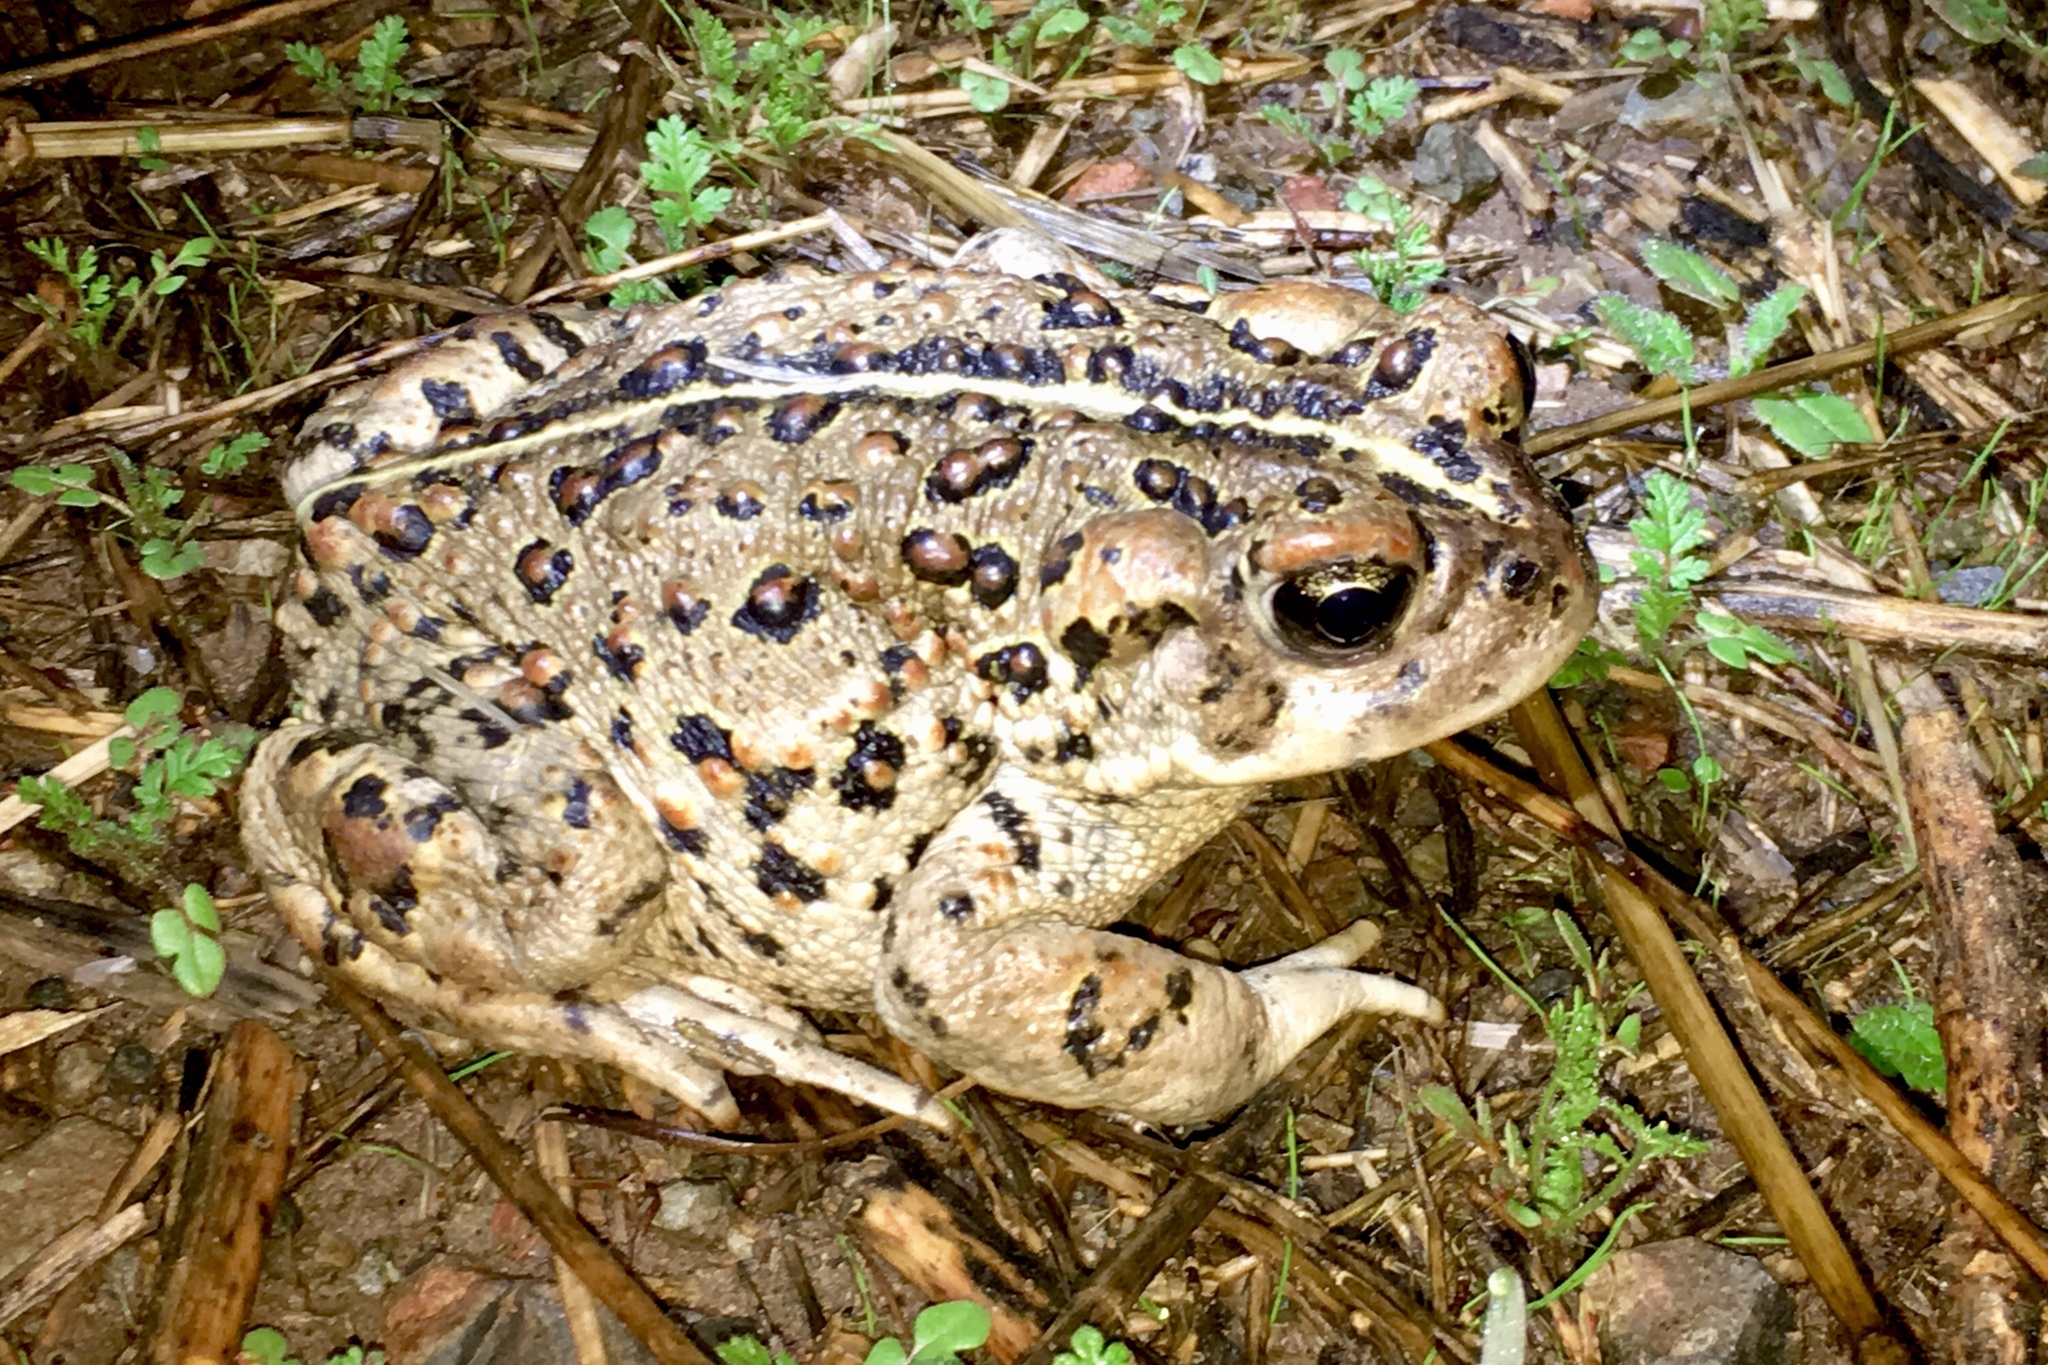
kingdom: Animalia
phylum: Chordata
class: Amphibia
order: Anura
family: Bufonidae
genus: Anaxyrus
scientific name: Anaxyrus boreas
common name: Western toad
